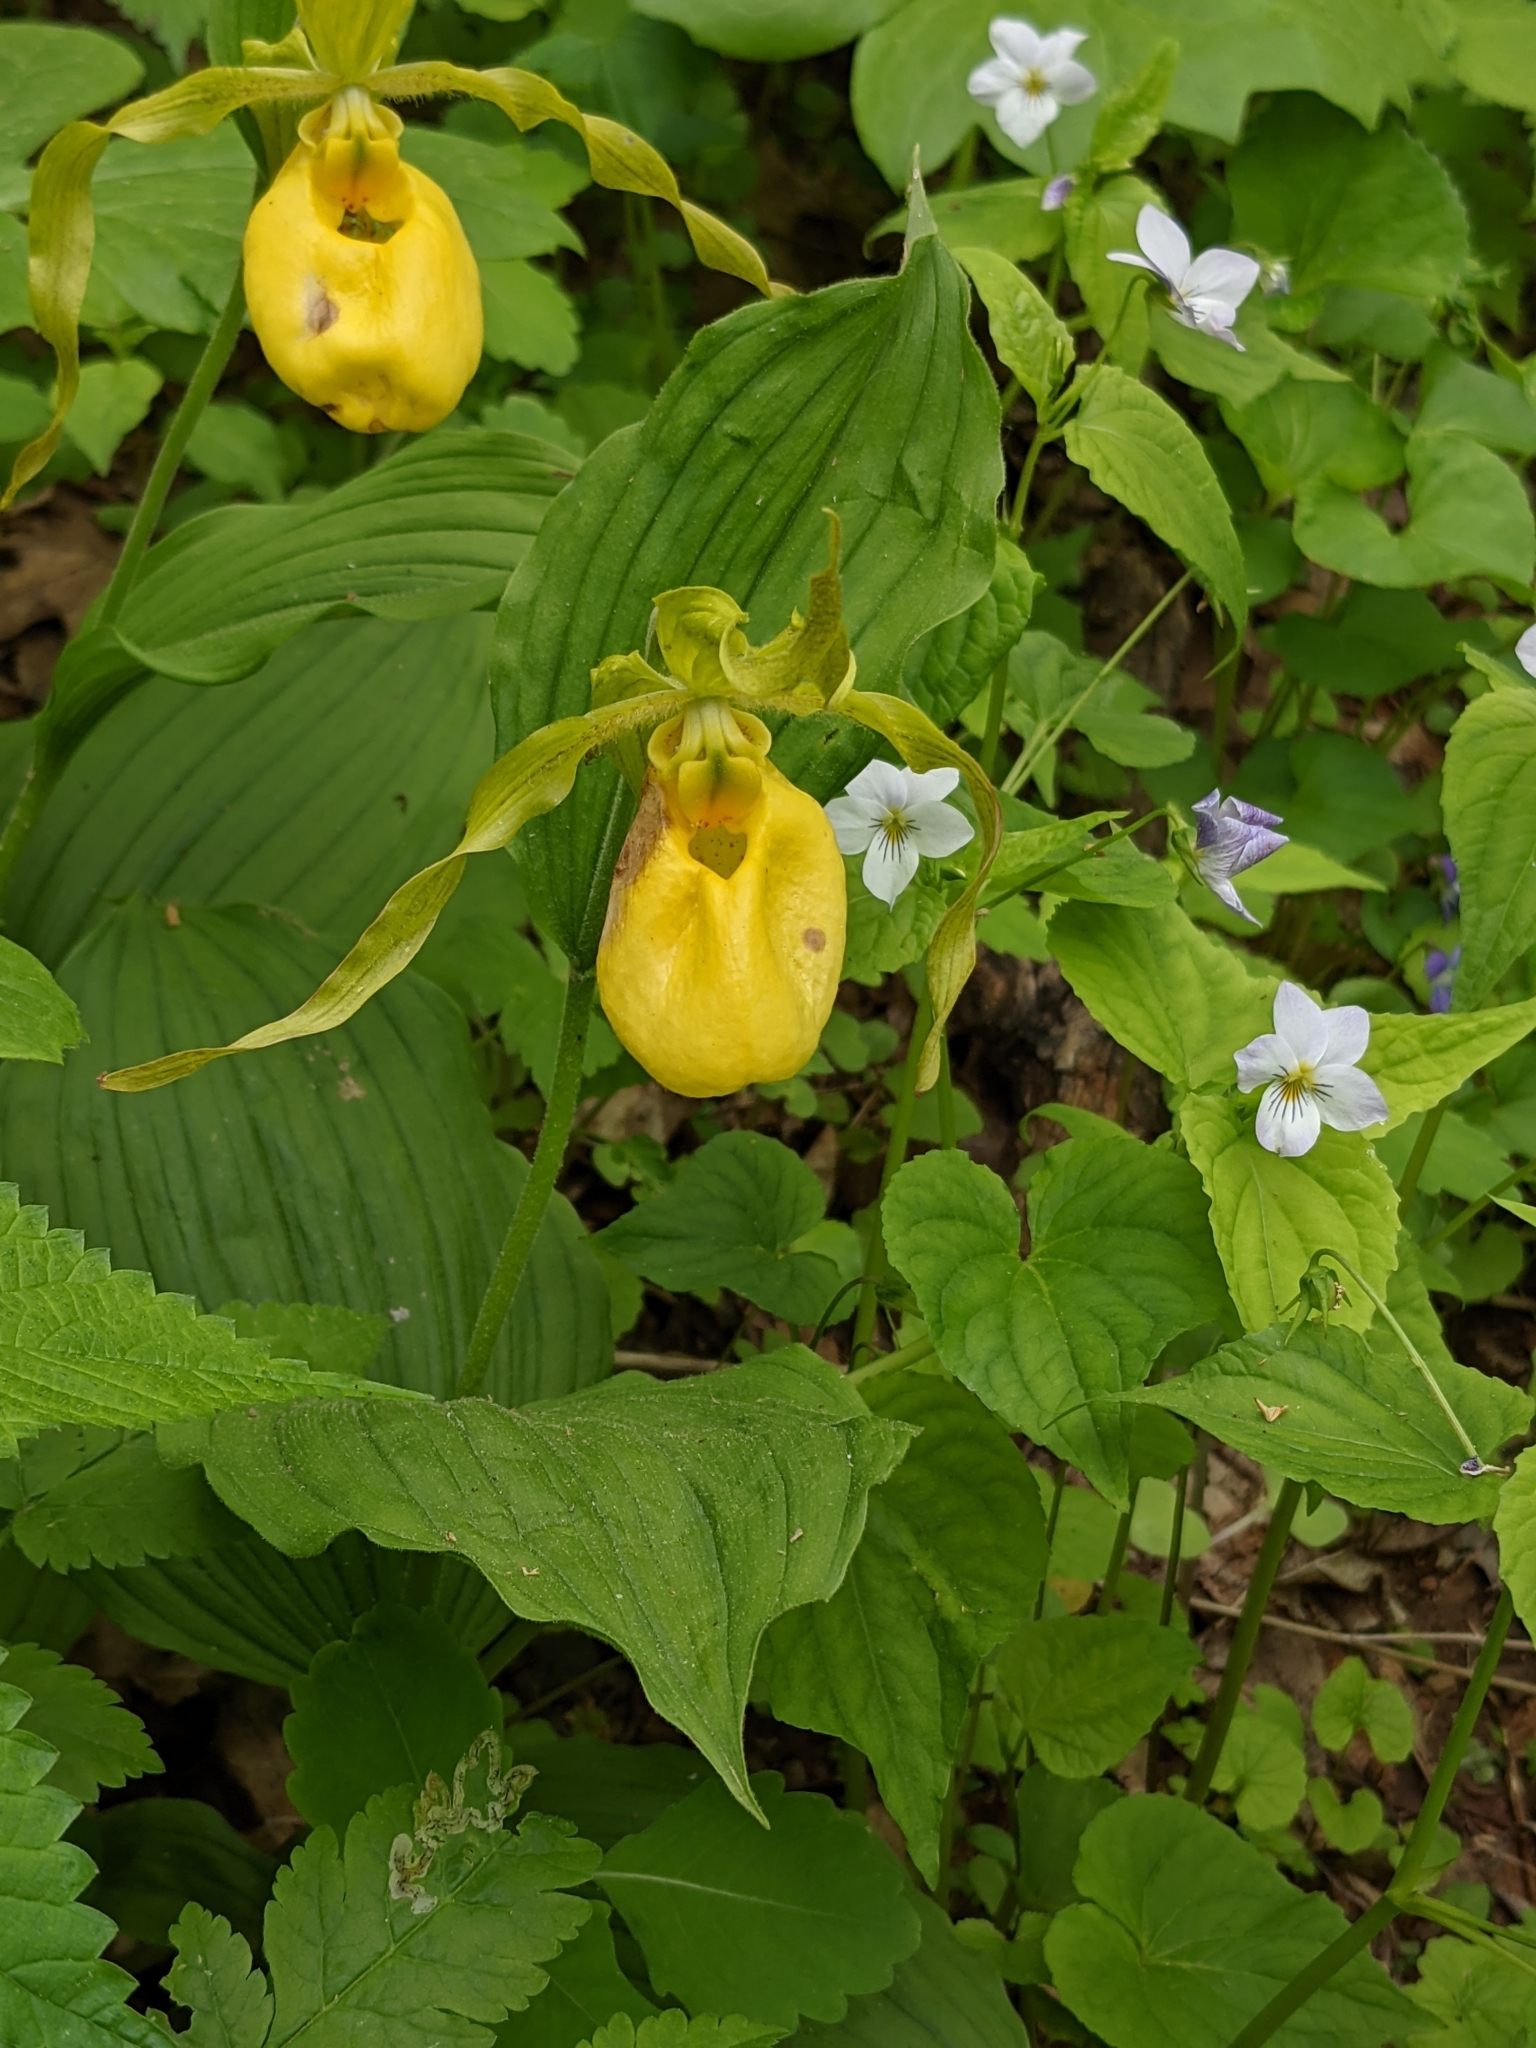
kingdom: Plantae
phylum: Tracheophyta
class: Liliopsida
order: Asparagales
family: Orchidaceae
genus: Cypripedium
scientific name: Cypripedium parviflorum
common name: American yellow lady's-slipper
